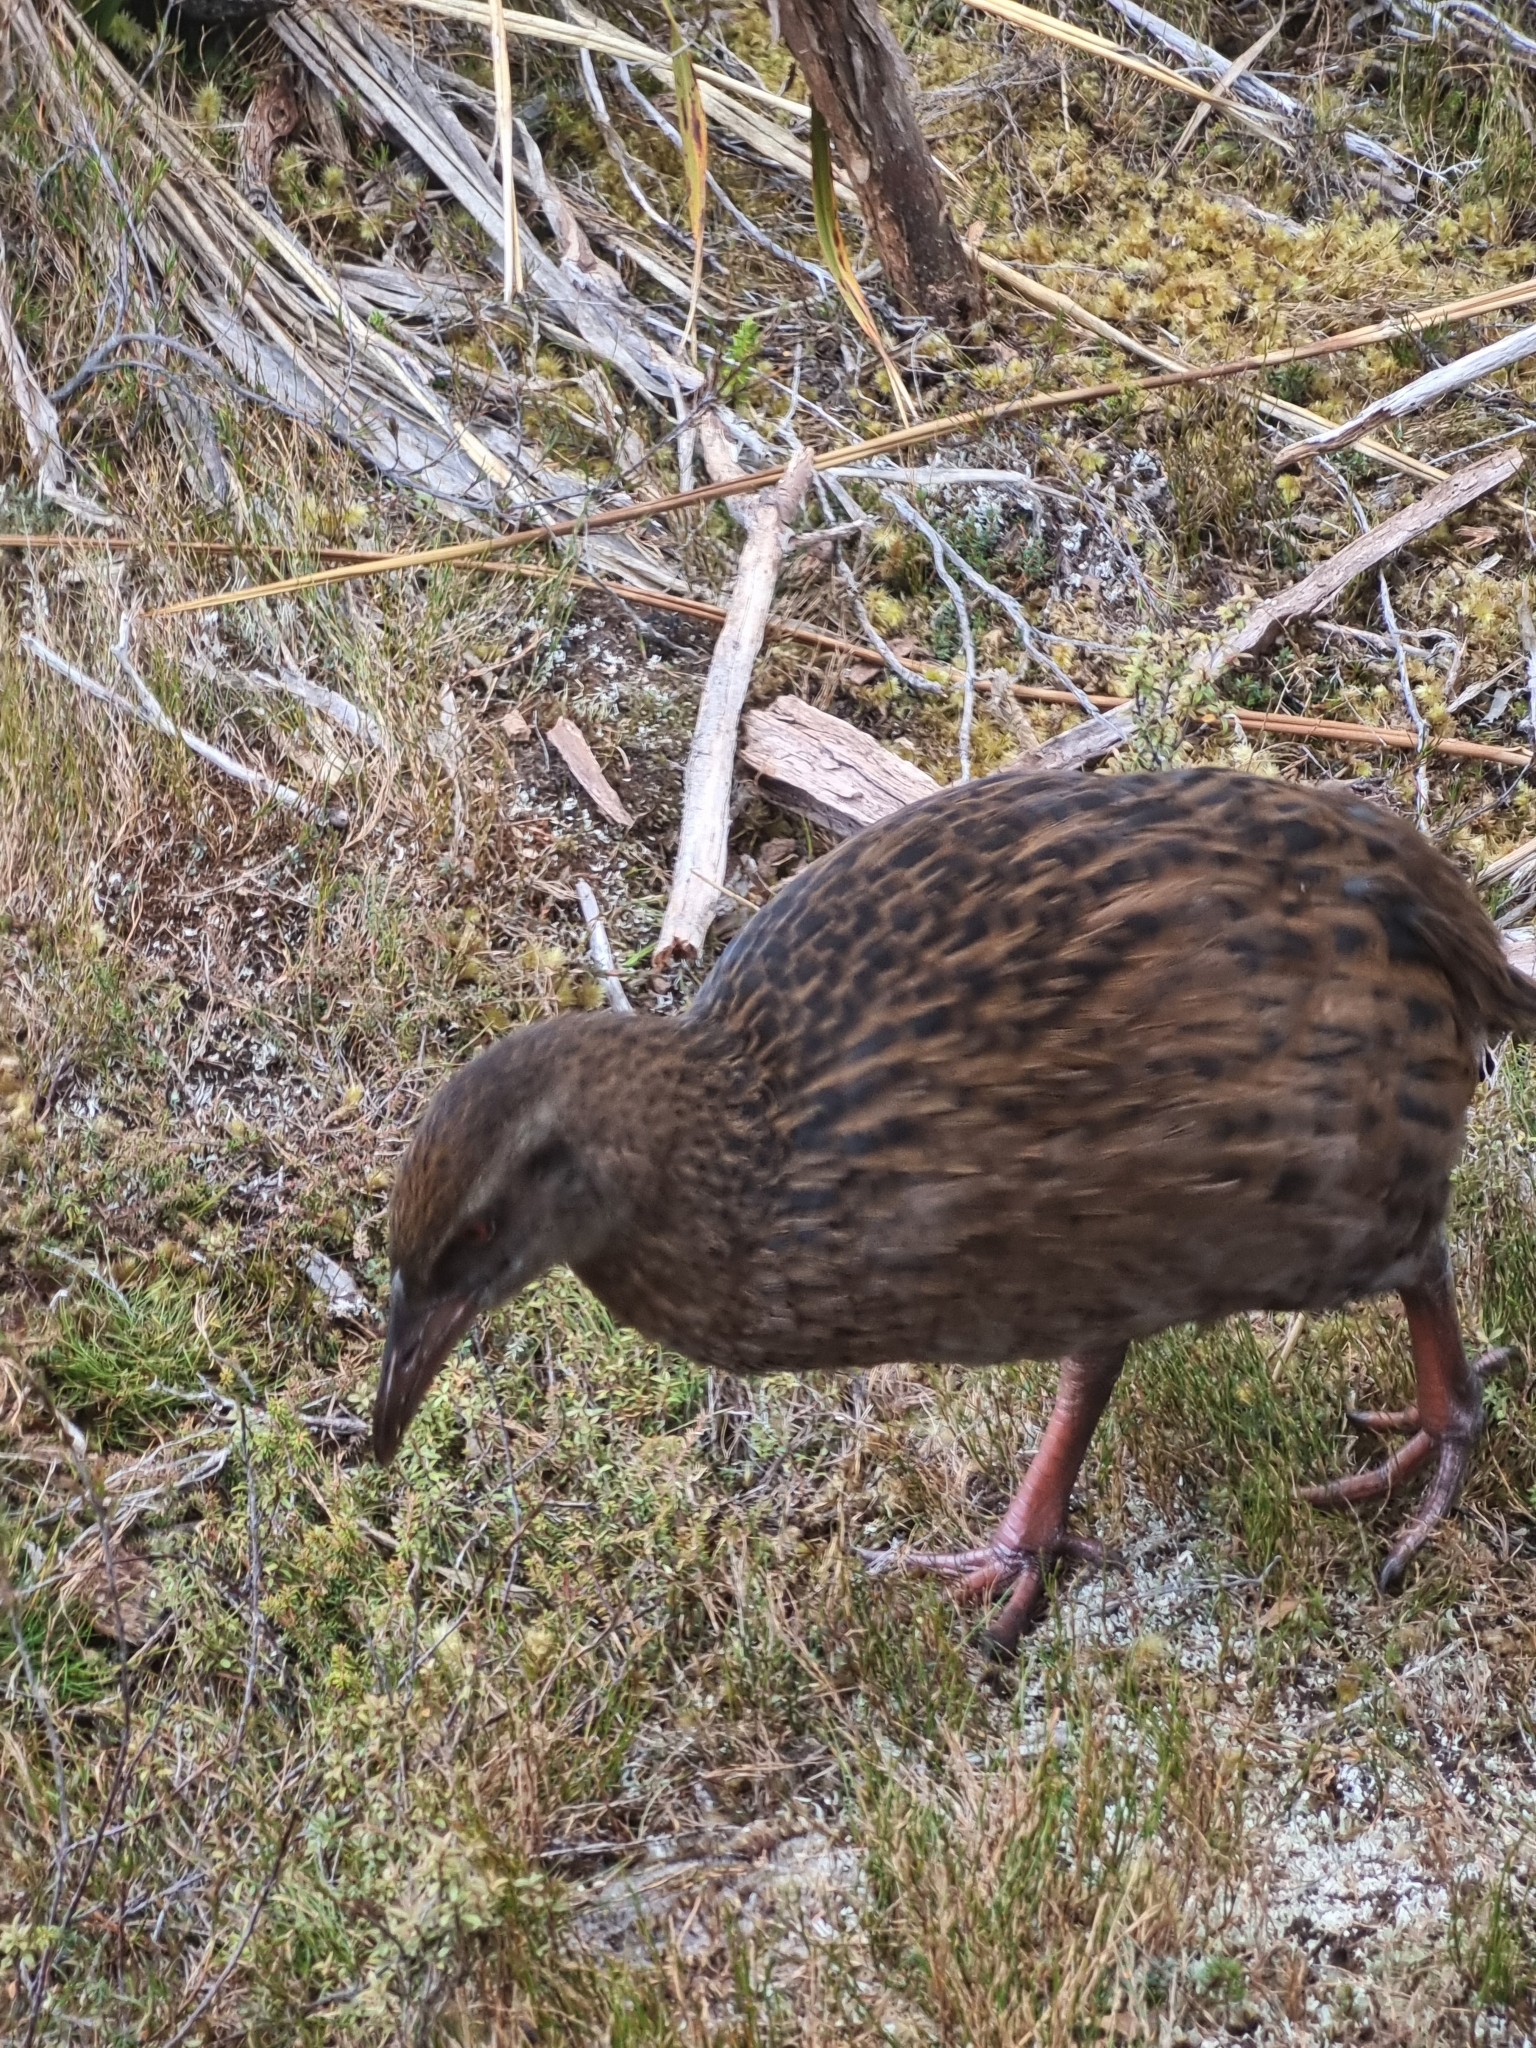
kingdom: Animalia
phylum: Chordata
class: Aves
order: Gruiformes
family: Rallidae
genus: Gallirallus
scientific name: Gallirallus australis
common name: Weka
